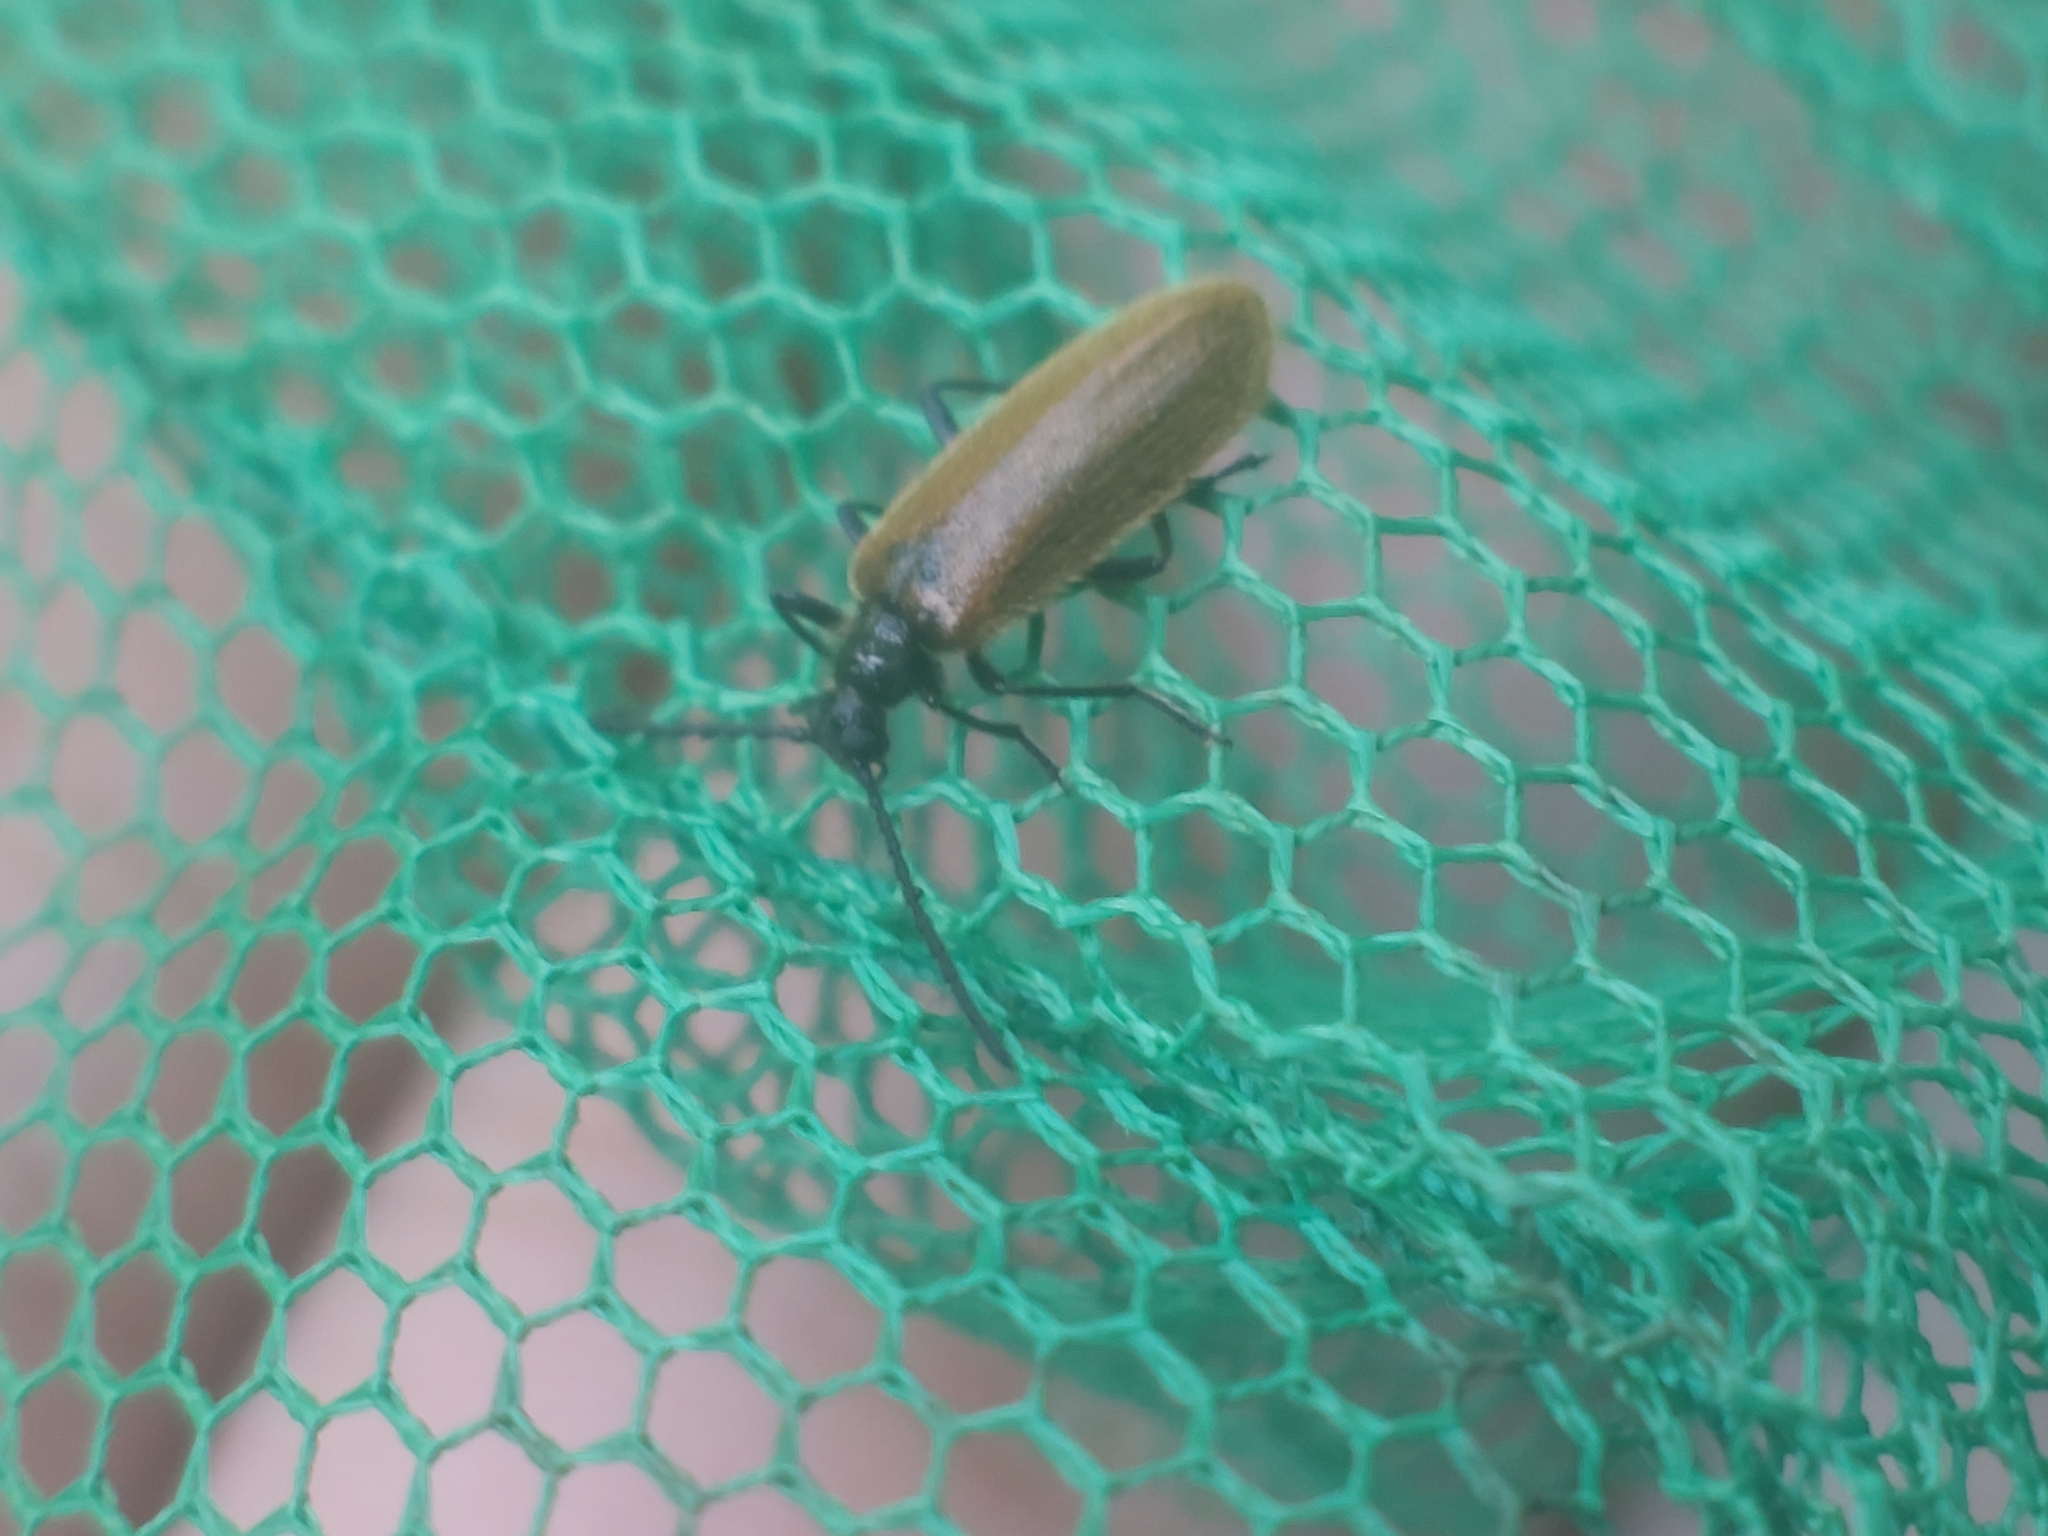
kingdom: Animalia
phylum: Arthropoda
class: Insecta
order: Coleoptera
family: Tenebrionidae
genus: Lagria
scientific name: Lagria hirta
